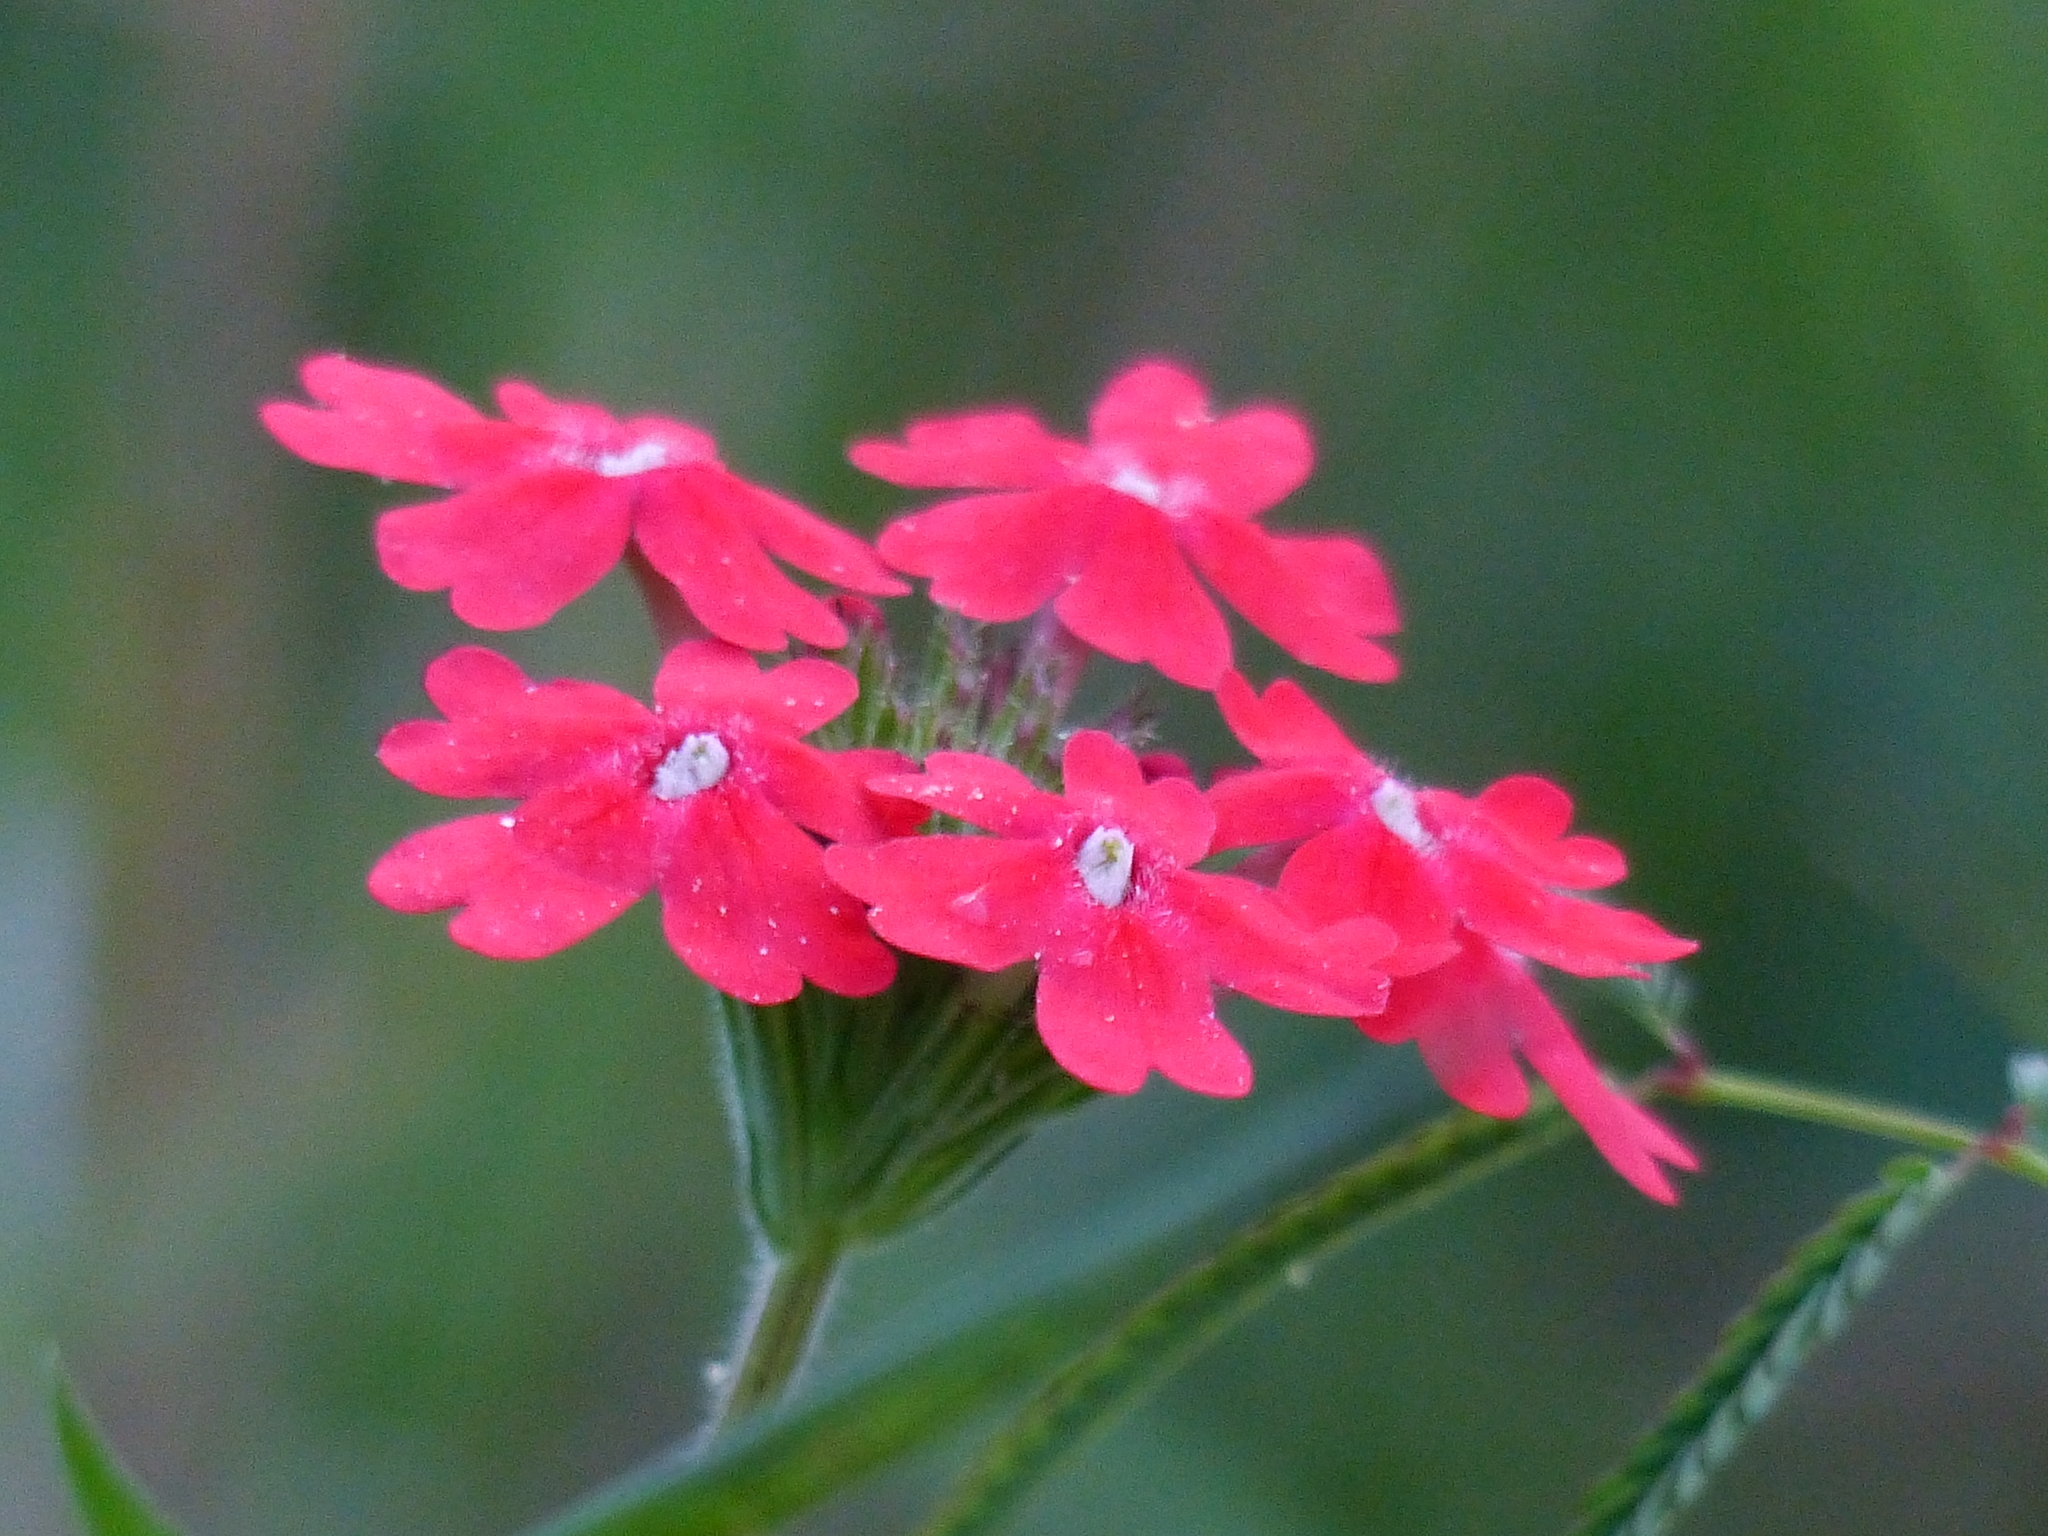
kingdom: Plantae
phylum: Tracheophyta
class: Magnoliopsida
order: Lamiales
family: Verbenaceae
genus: Verbena
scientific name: Verbena peruviana
